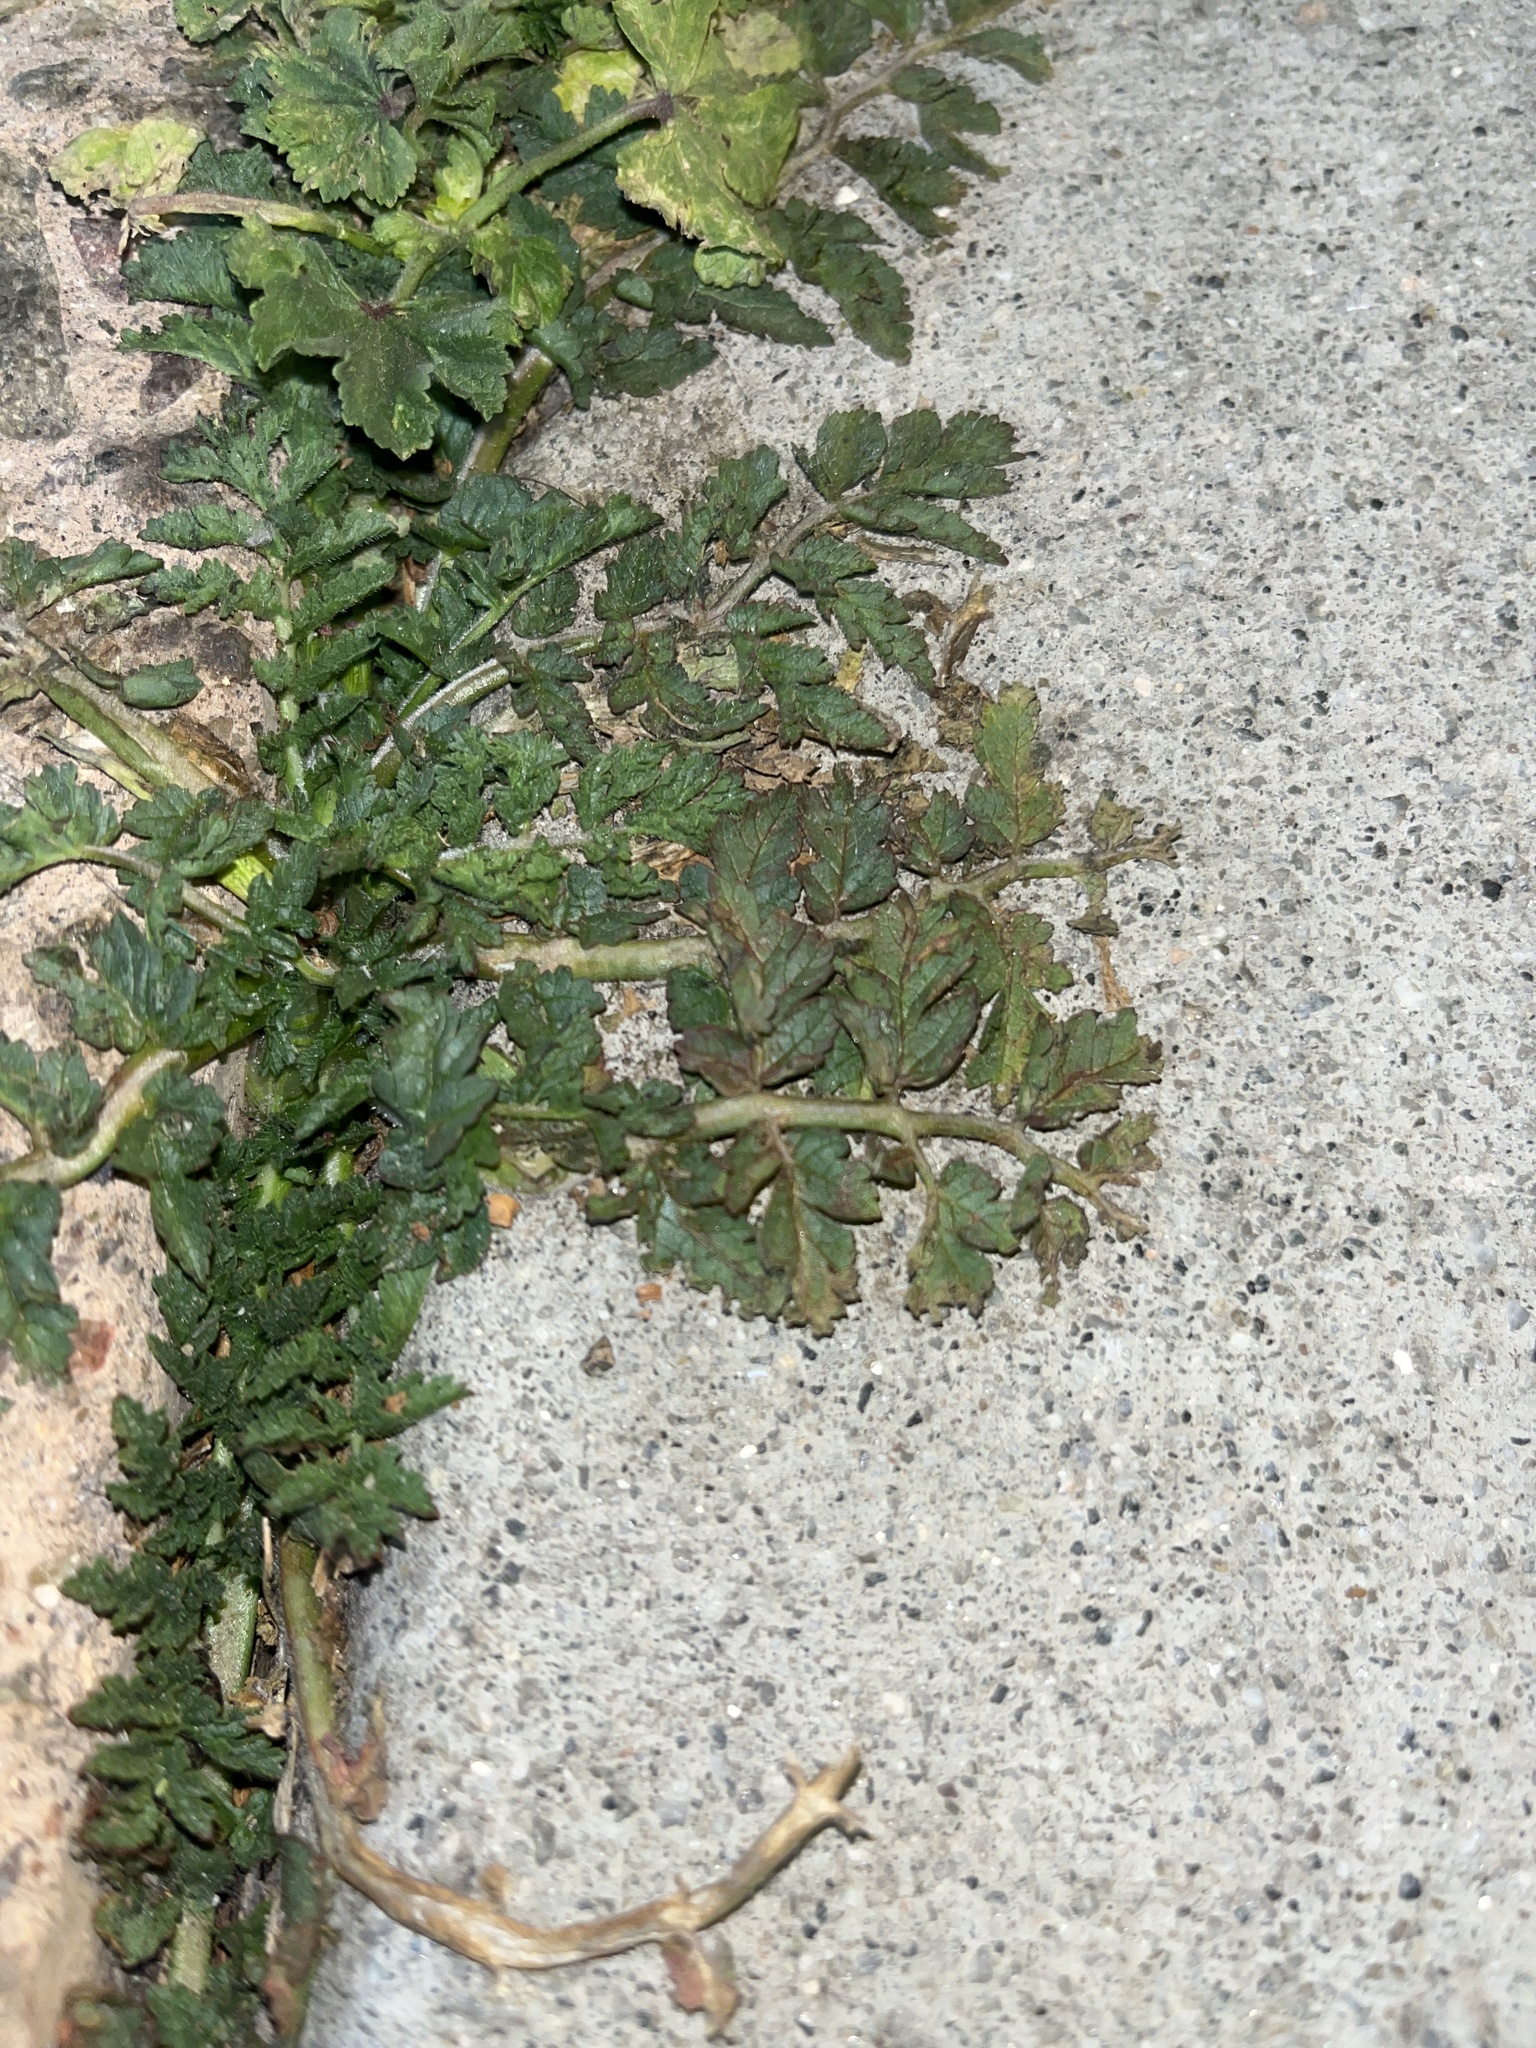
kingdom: Plantae
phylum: Tracheophyta
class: Magnoliopsida
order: Geraniales
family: Geraniaceae
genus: Erodium
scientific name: Erodium moschatum
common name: Musk stork's-bill
